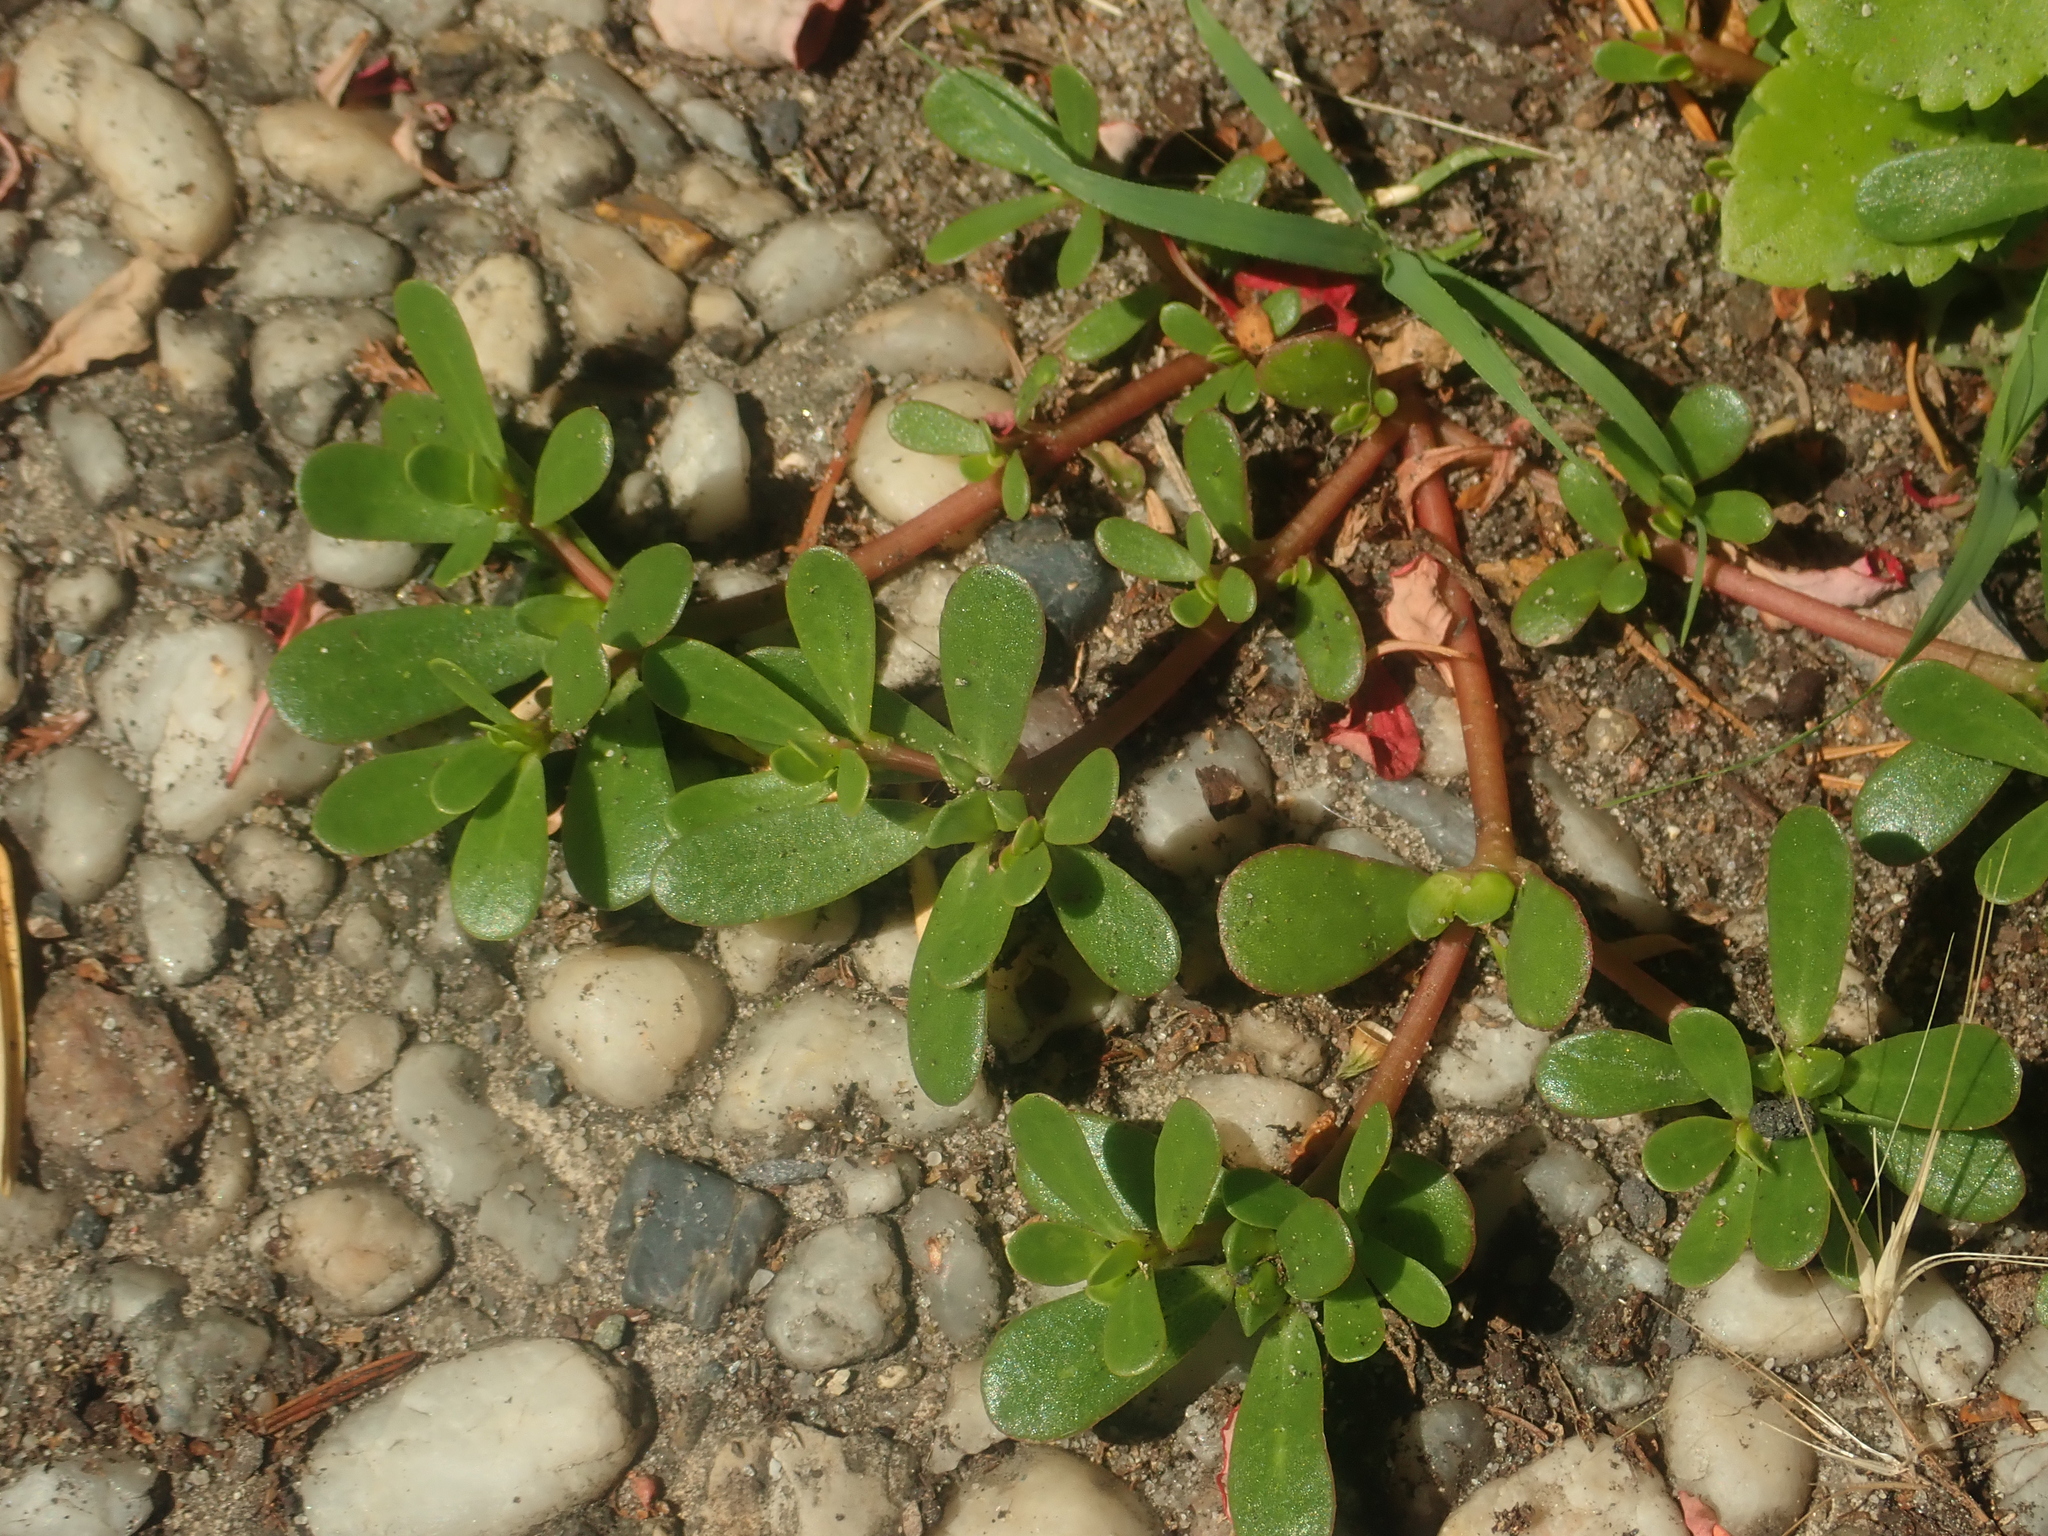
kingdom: Plantae
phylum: Tracheophyta
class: Magnoliopsida
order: Caryophyllales
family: Portulacaceae
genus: Portulaca
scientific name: Portulaca oleracea
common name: Common purslane
